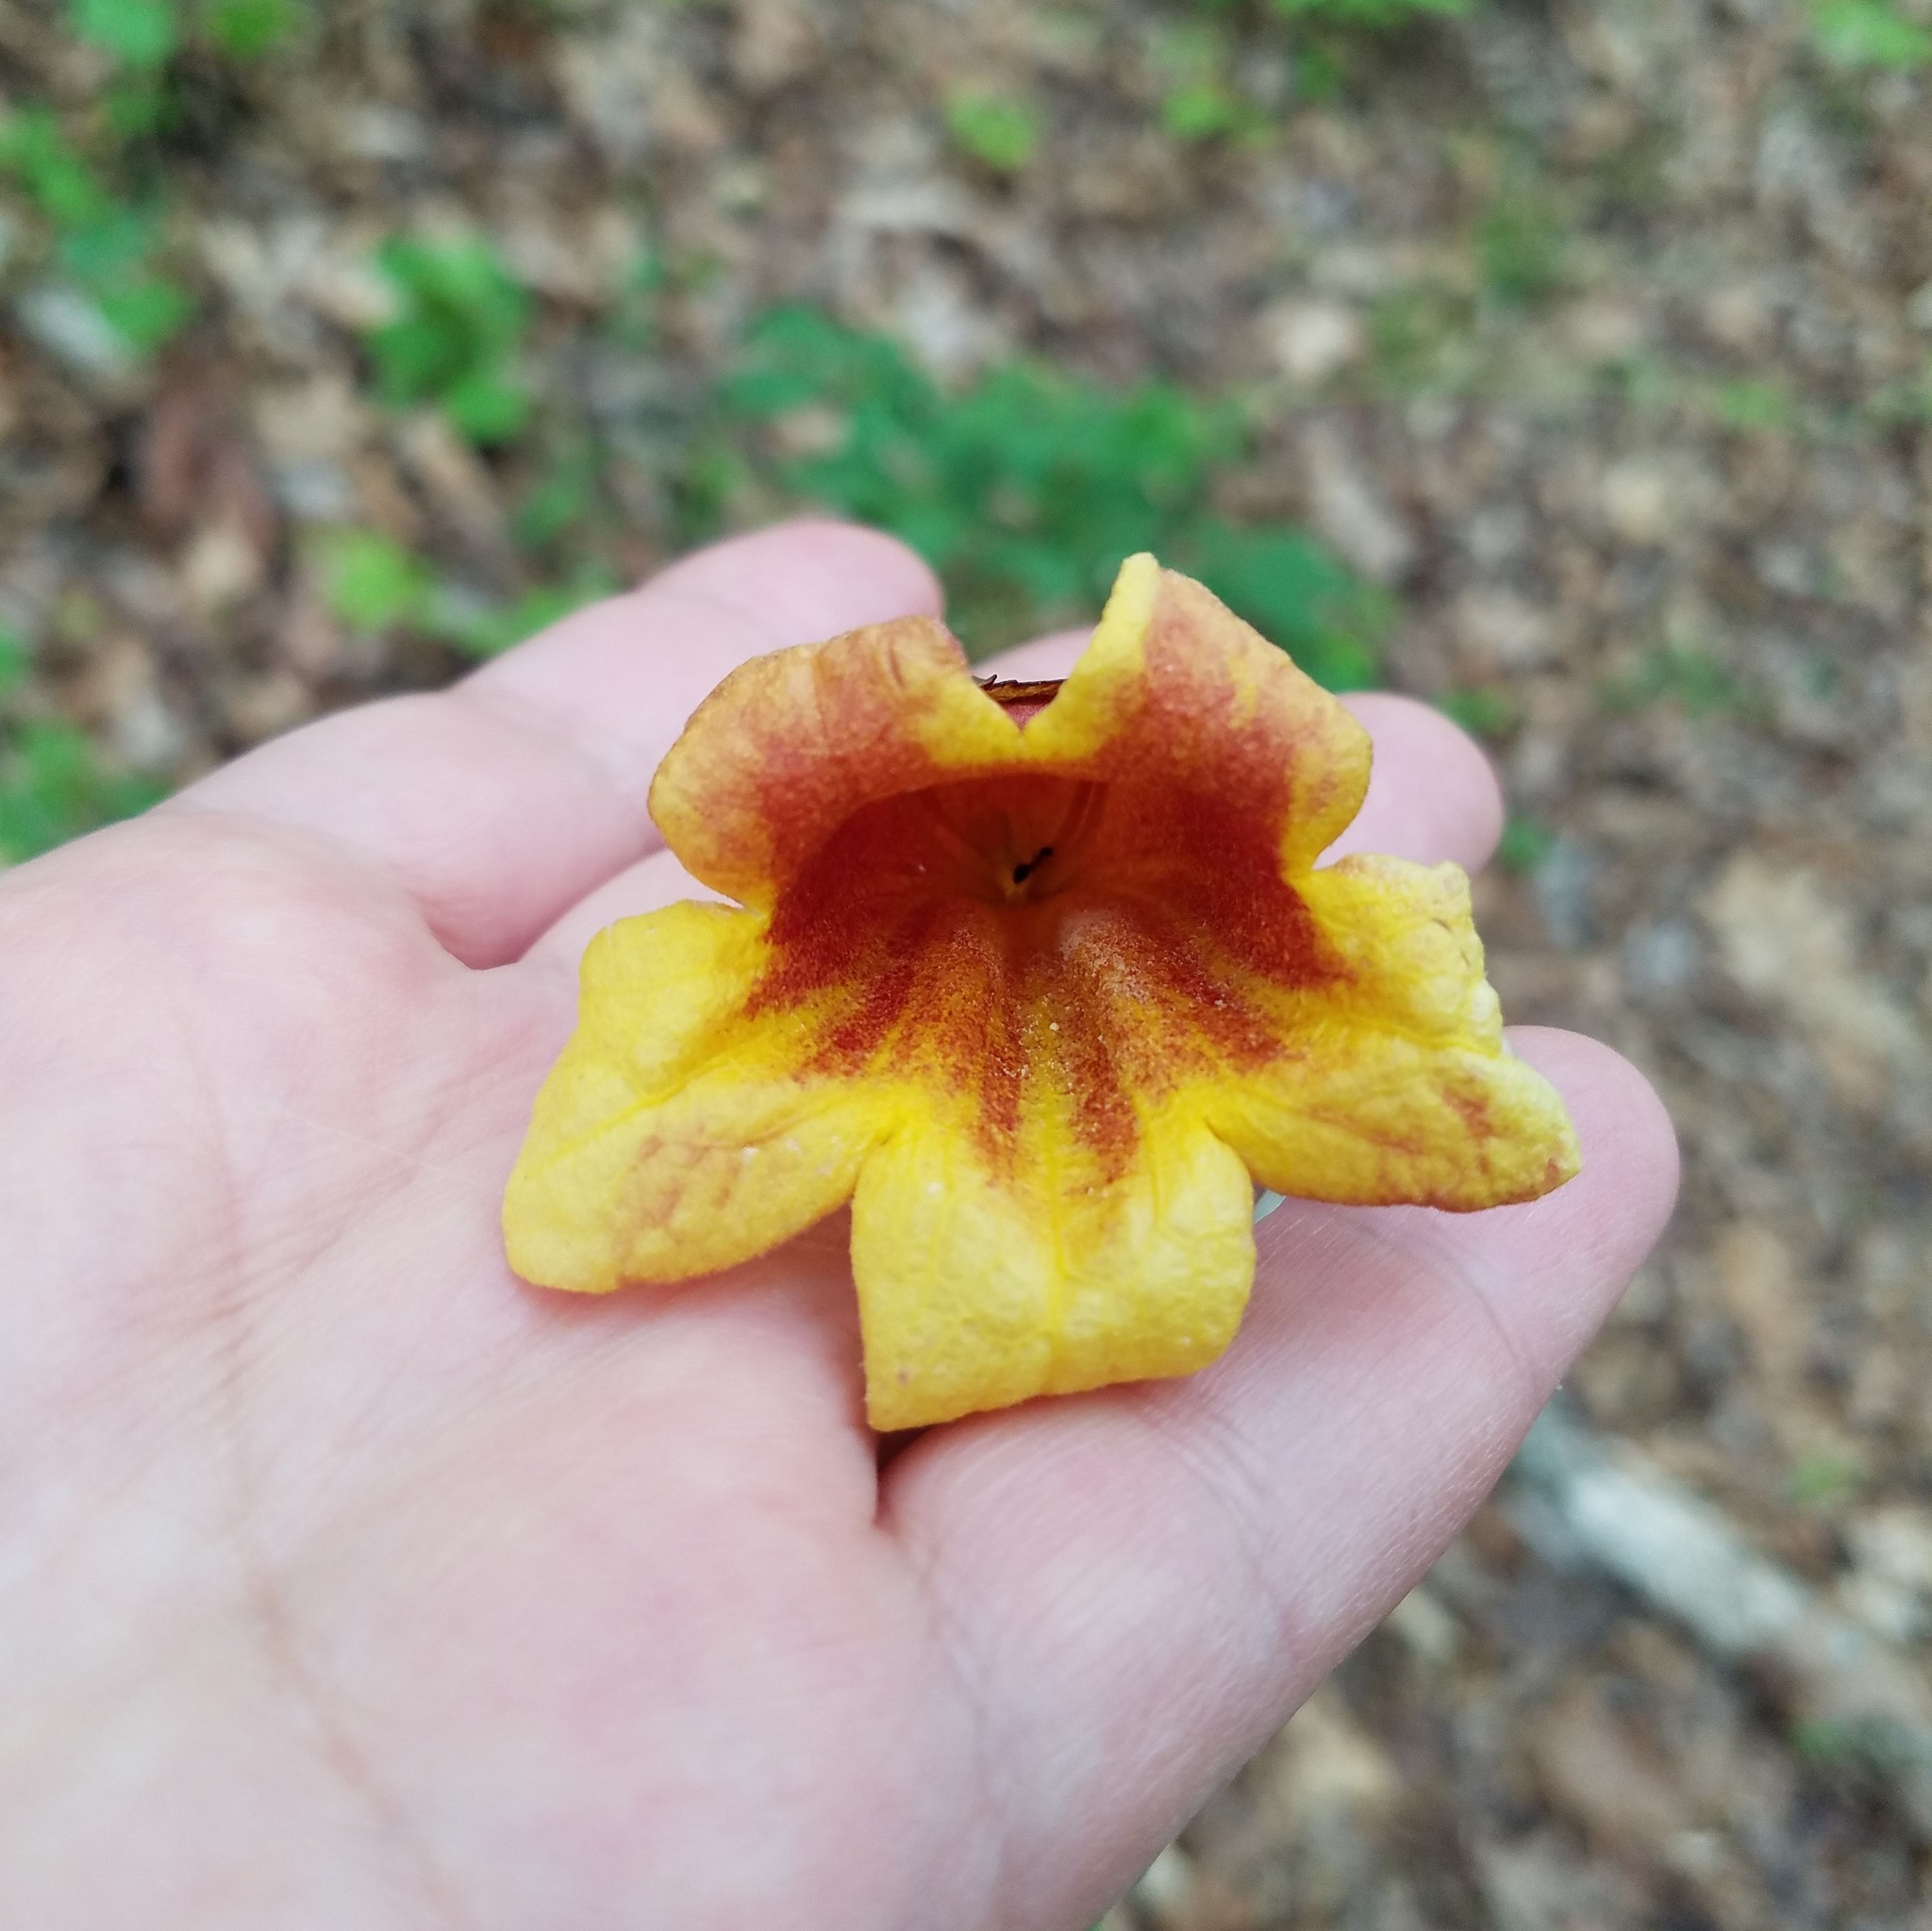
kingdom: Plantae
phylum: Tracheophyta
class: Magnoliopsida
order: Lamiales
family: Bignoniaceae
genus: Bignonia
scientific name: Bignonia capreolata
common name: Crossvine
